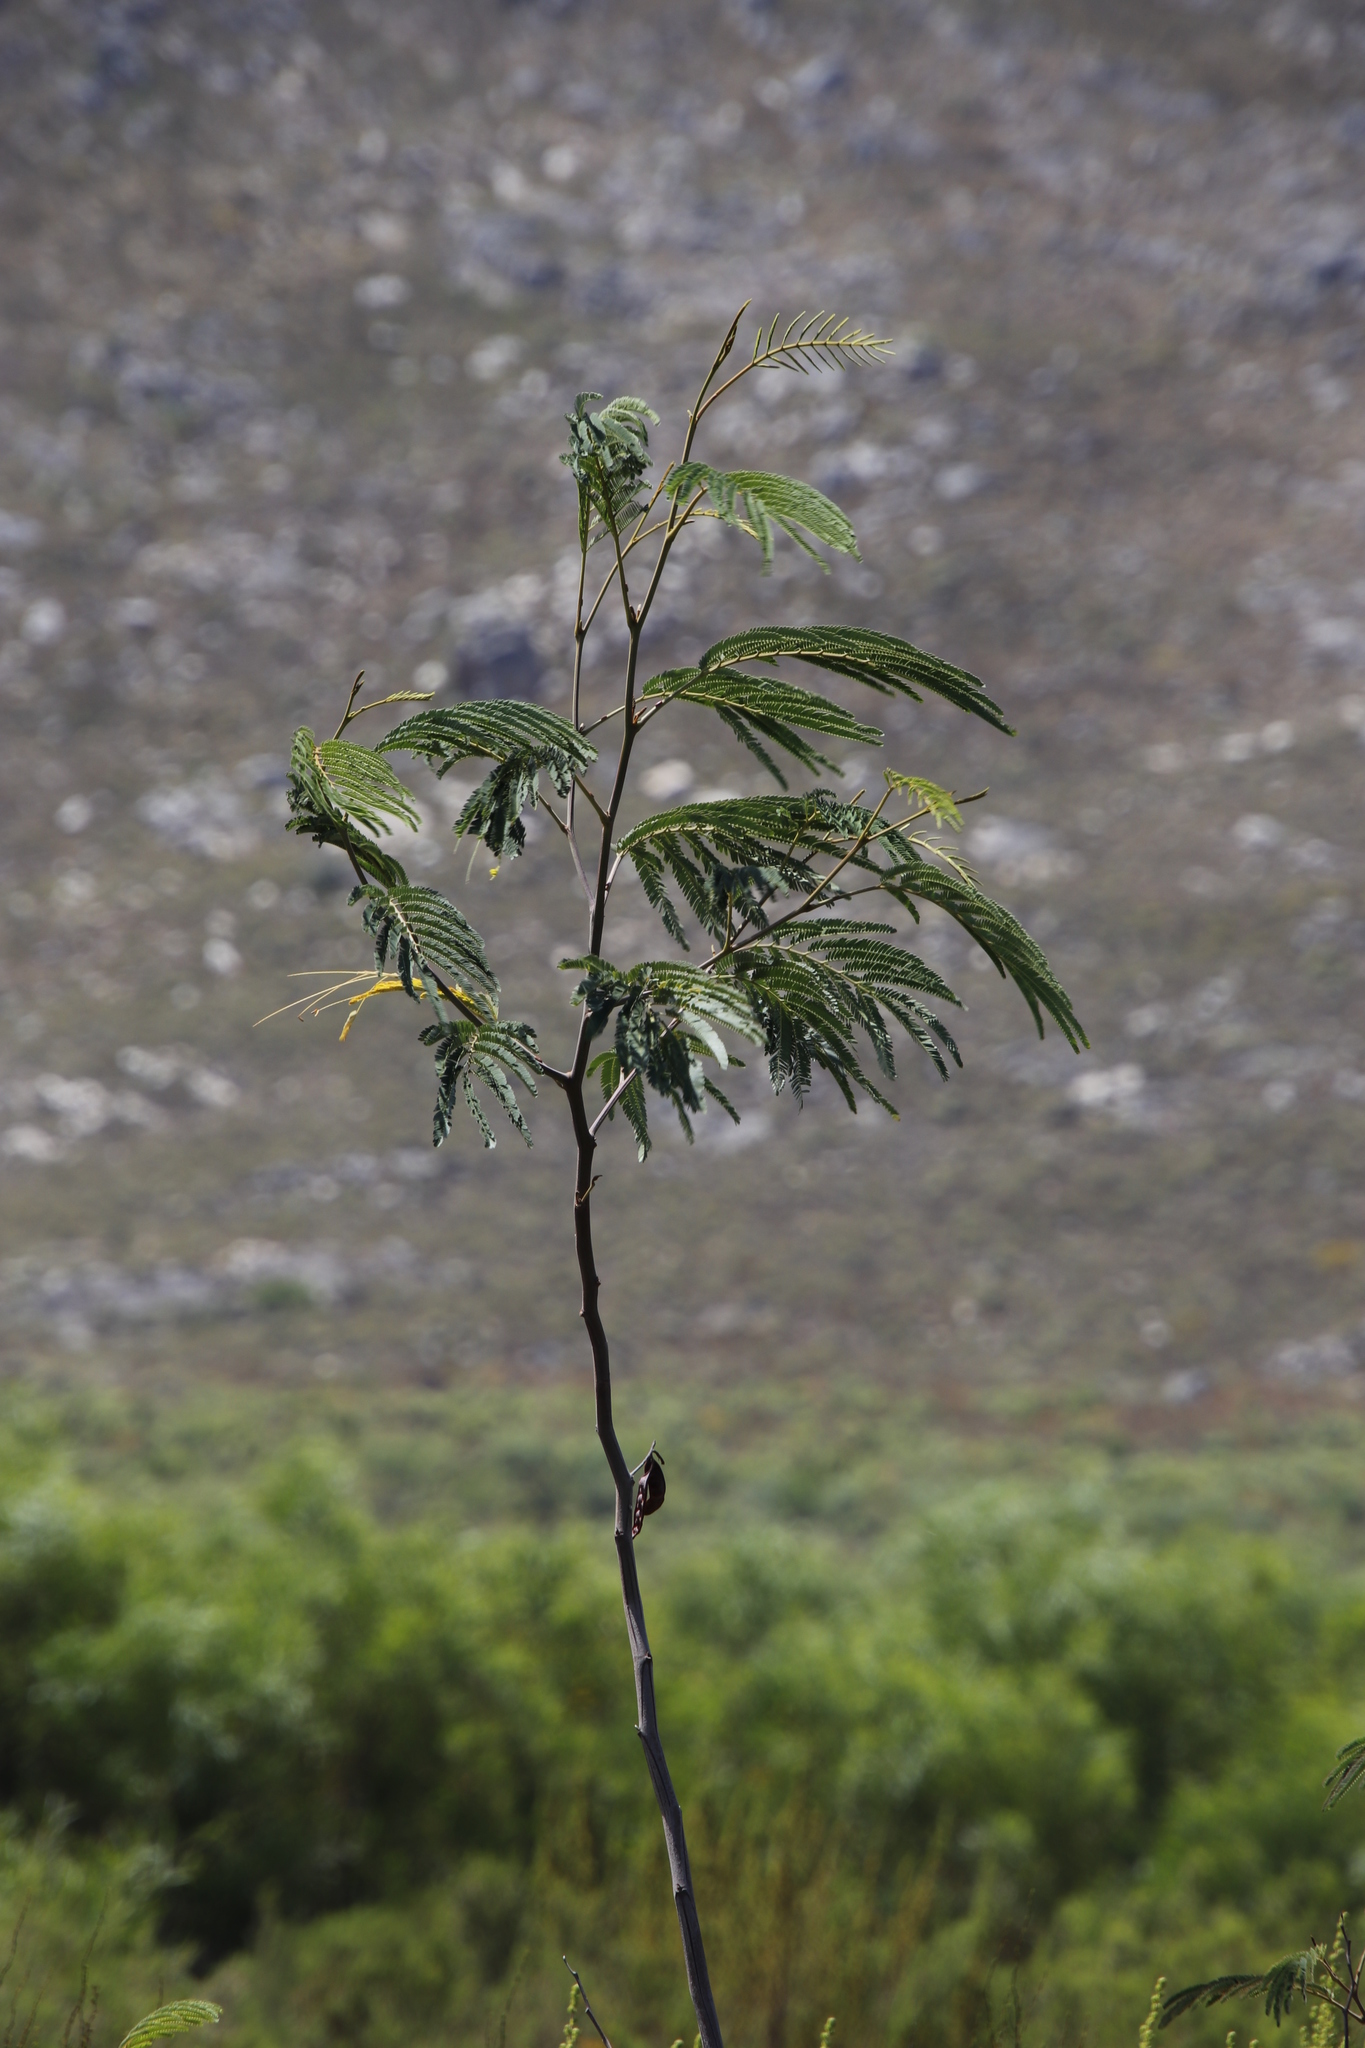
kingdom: Plantae
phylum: Tracheophyta
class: Magnoliopsida
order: Fabales
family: Fabaceae
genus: Paraserianthes
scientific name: Paraserianthes lophantha
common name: Plume albizia
